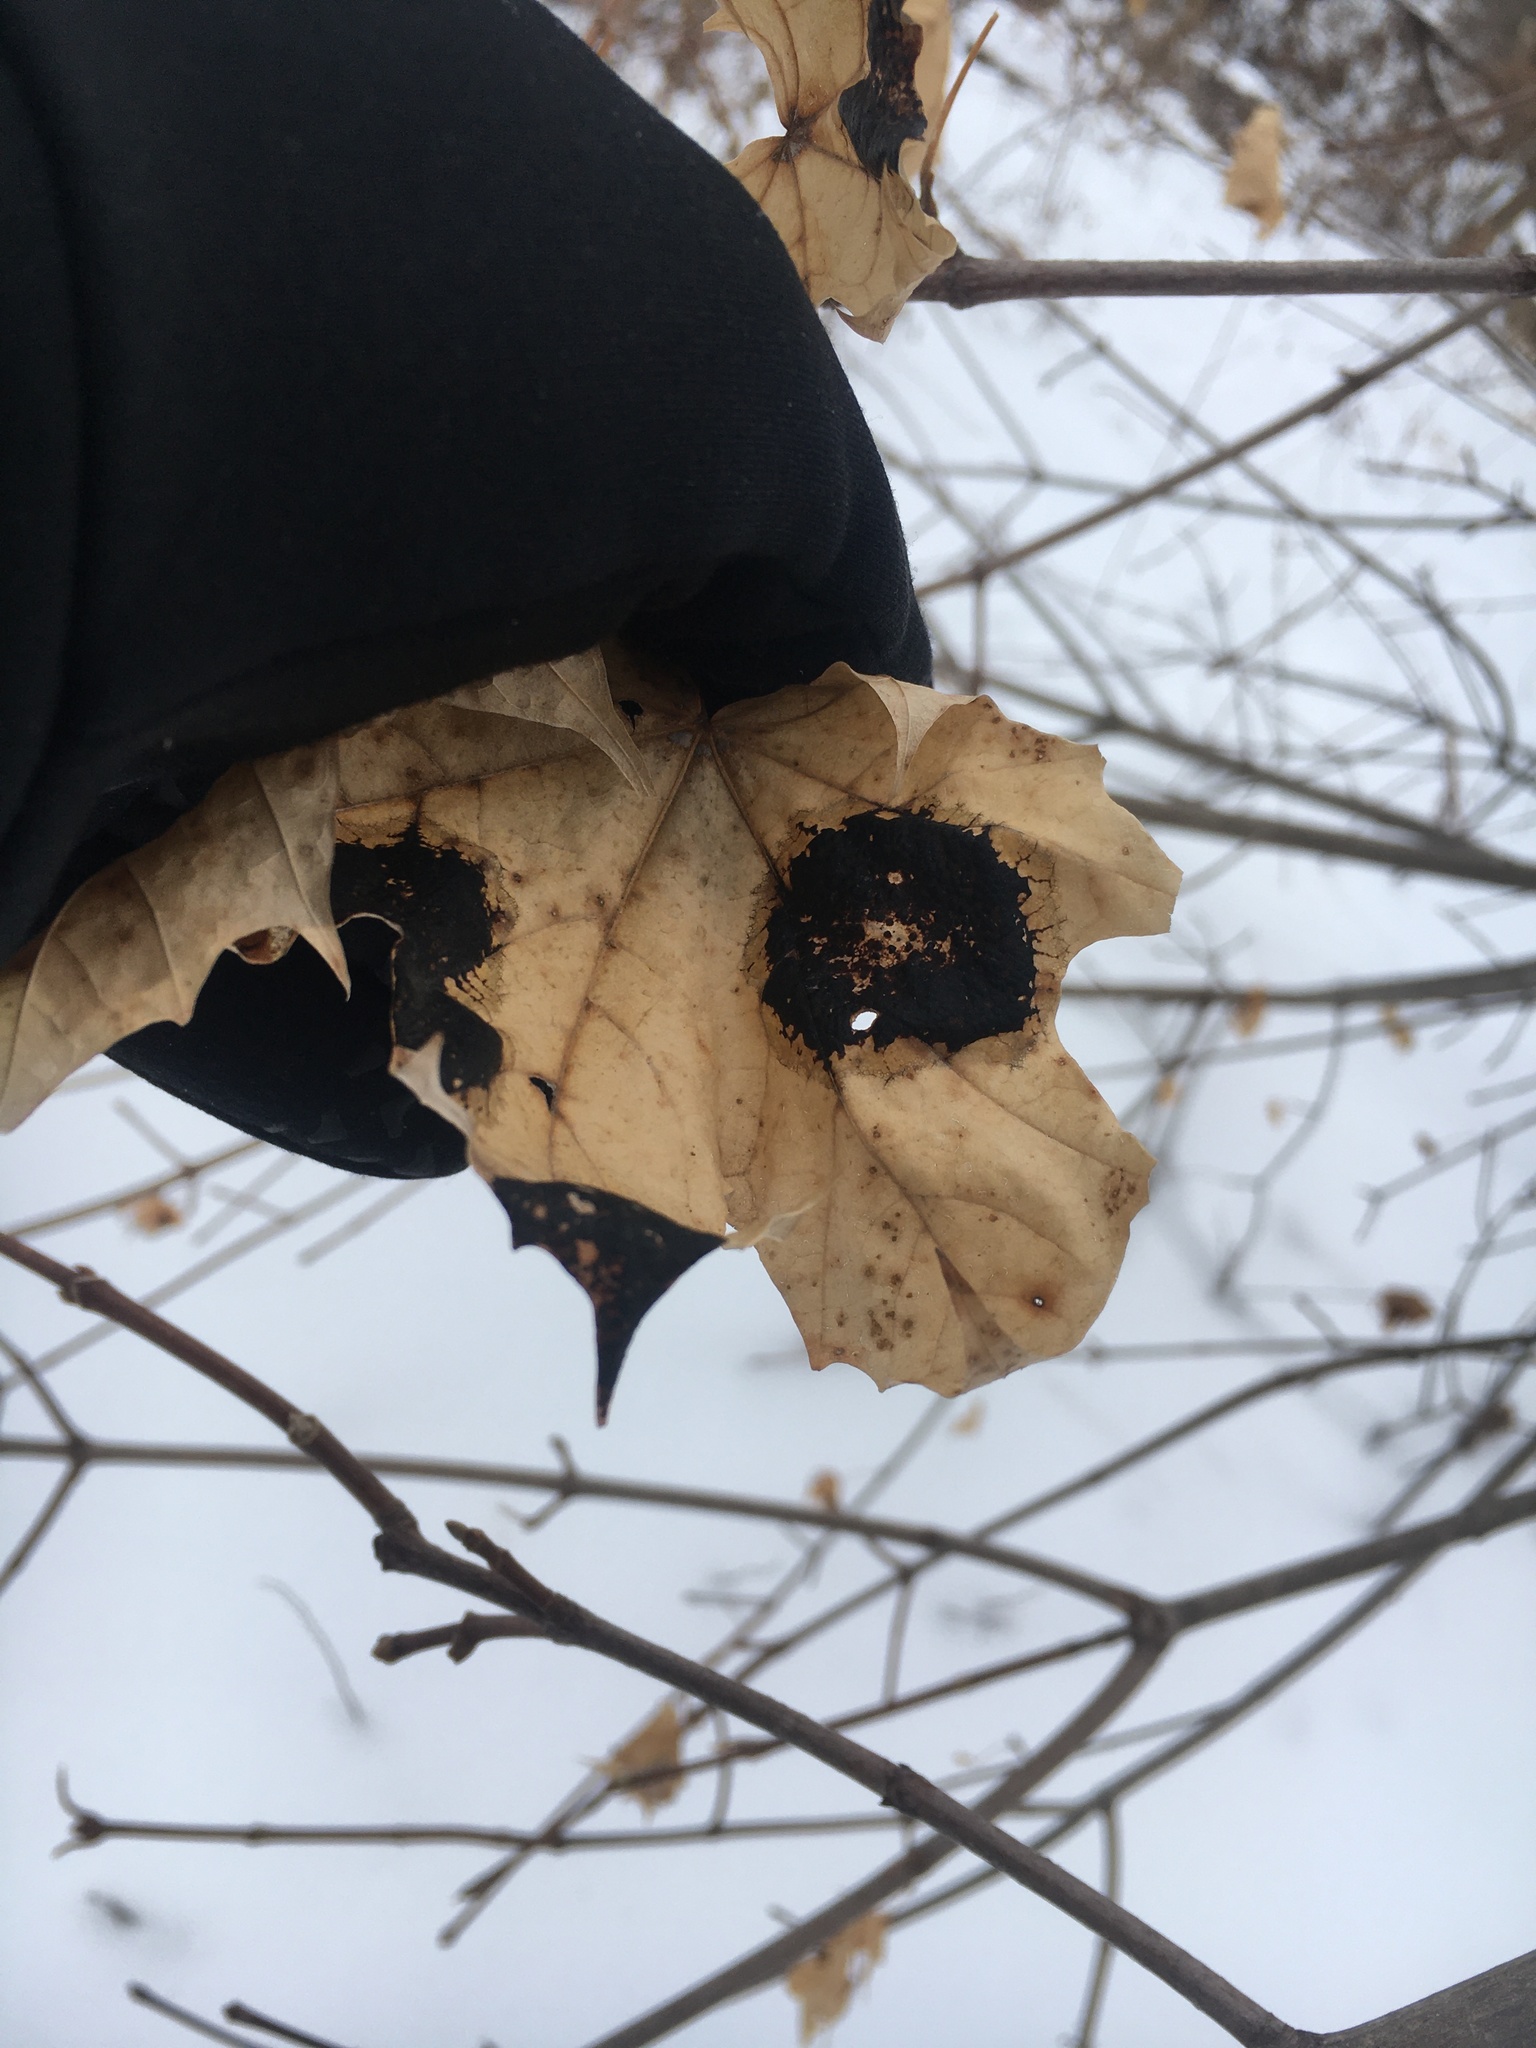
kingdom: Fungi
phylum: Ascomycota
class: Leotiomycetes
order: Rhytismatales
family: Rhytismataceae
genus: Rhytisma
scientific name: Rhytisma acerinum
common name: European tar spot
